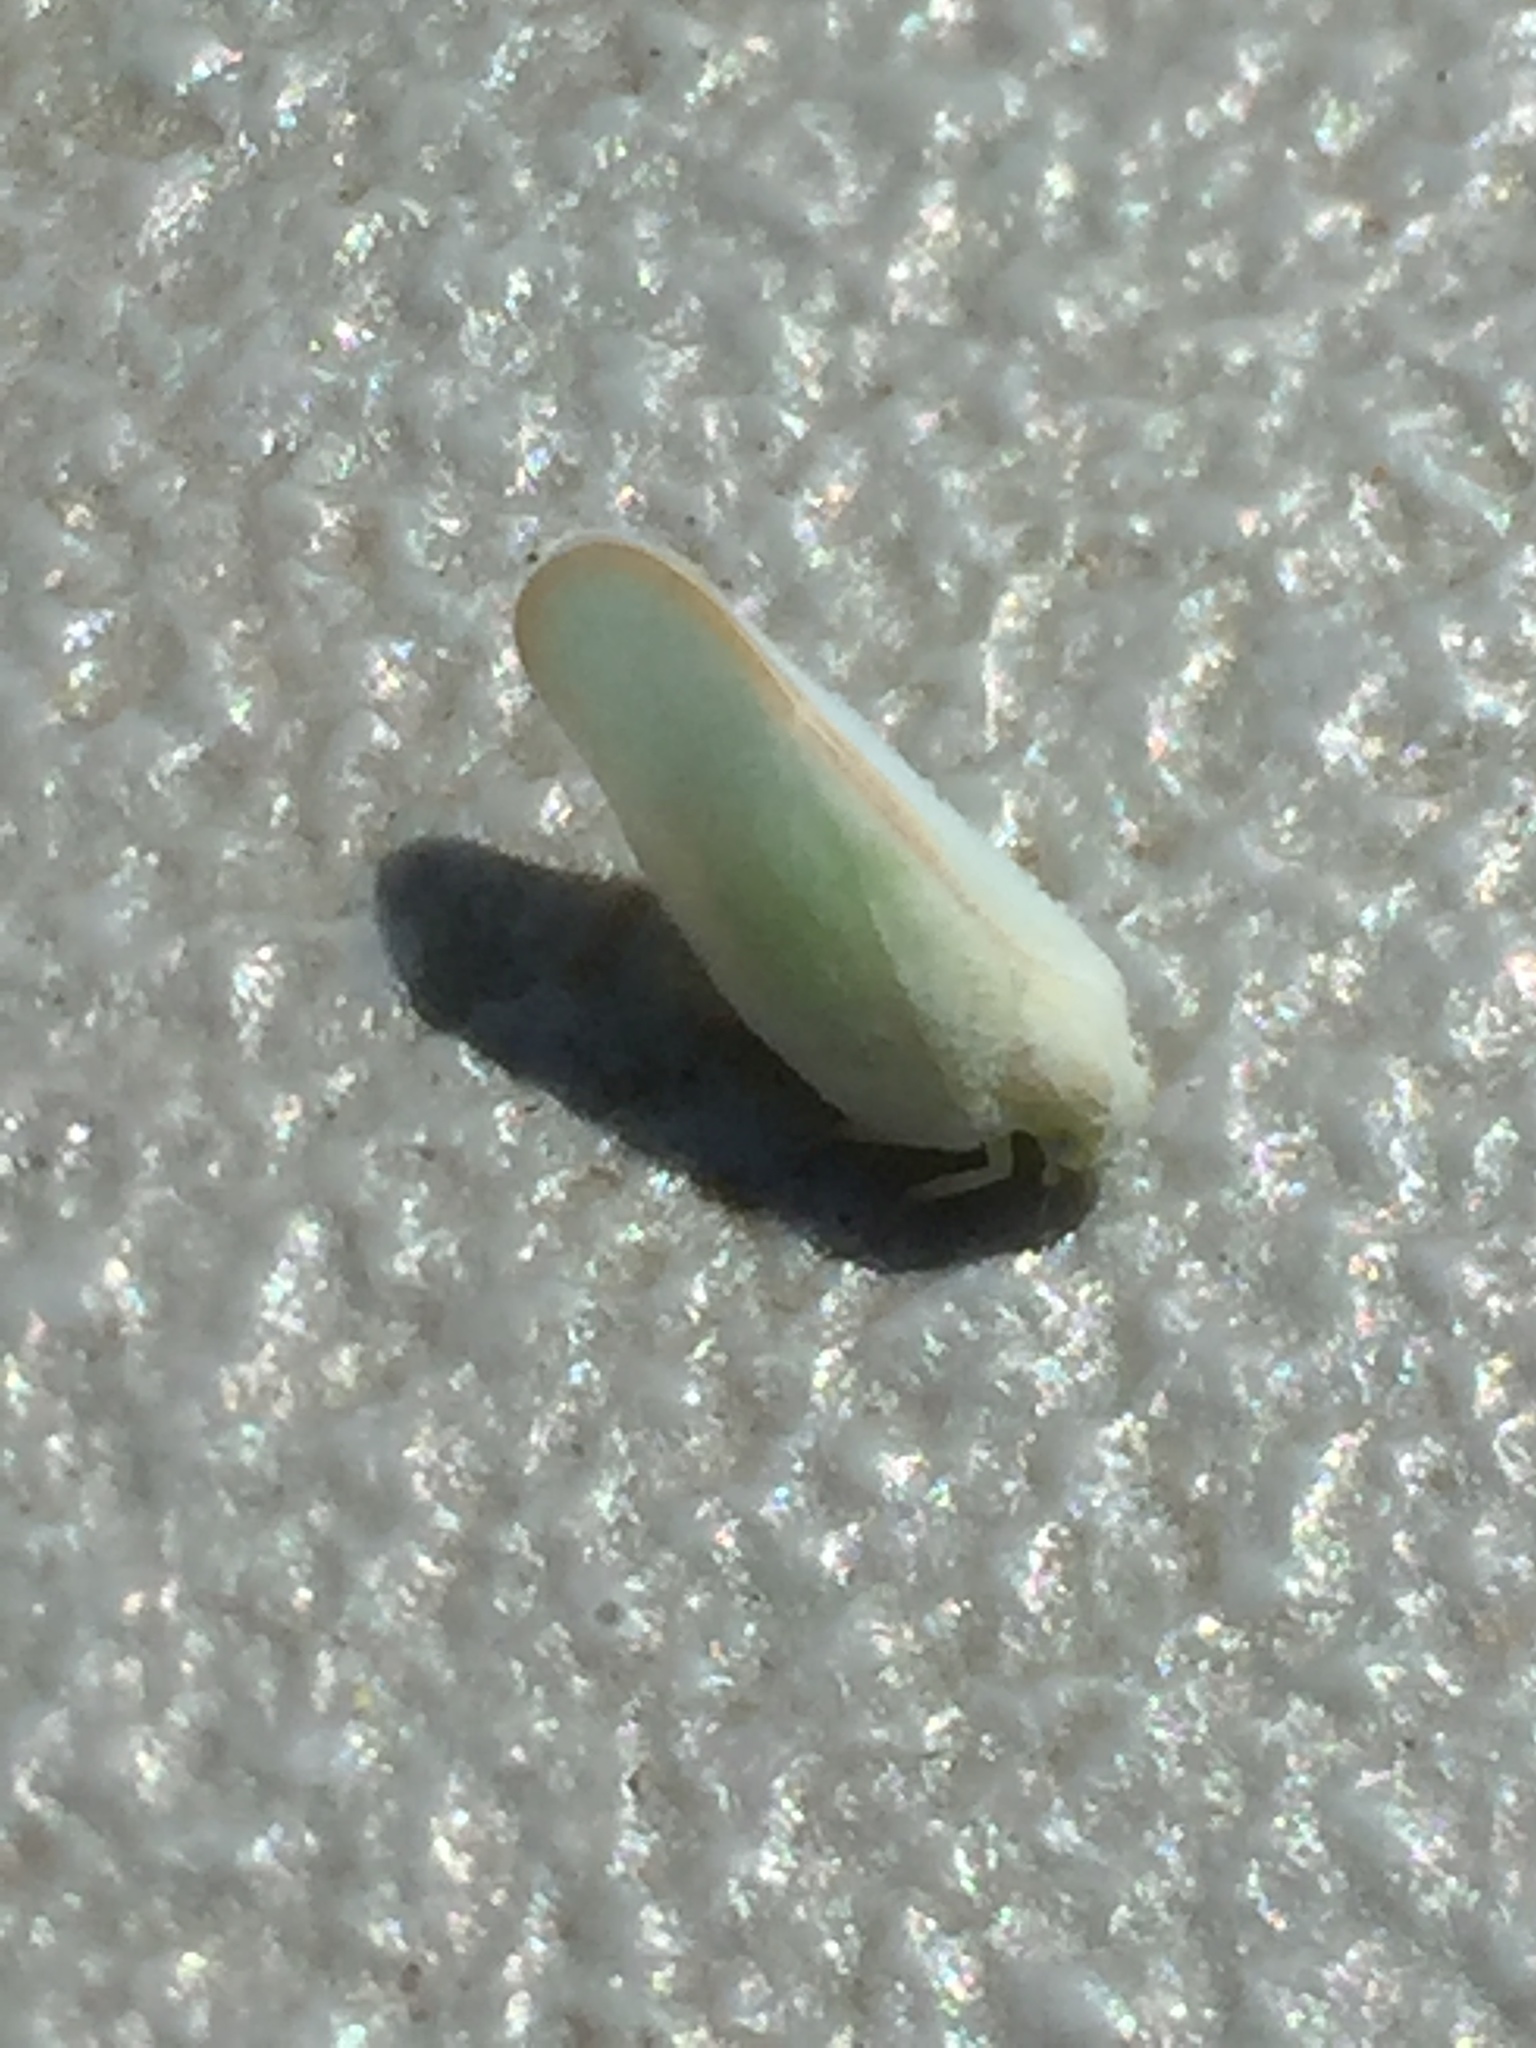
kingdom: Animalia
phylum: Arthropoda
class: Insecta
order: Hemiptera
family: Flatidae
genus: Ormenoides
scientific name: Ormenoides venusta
